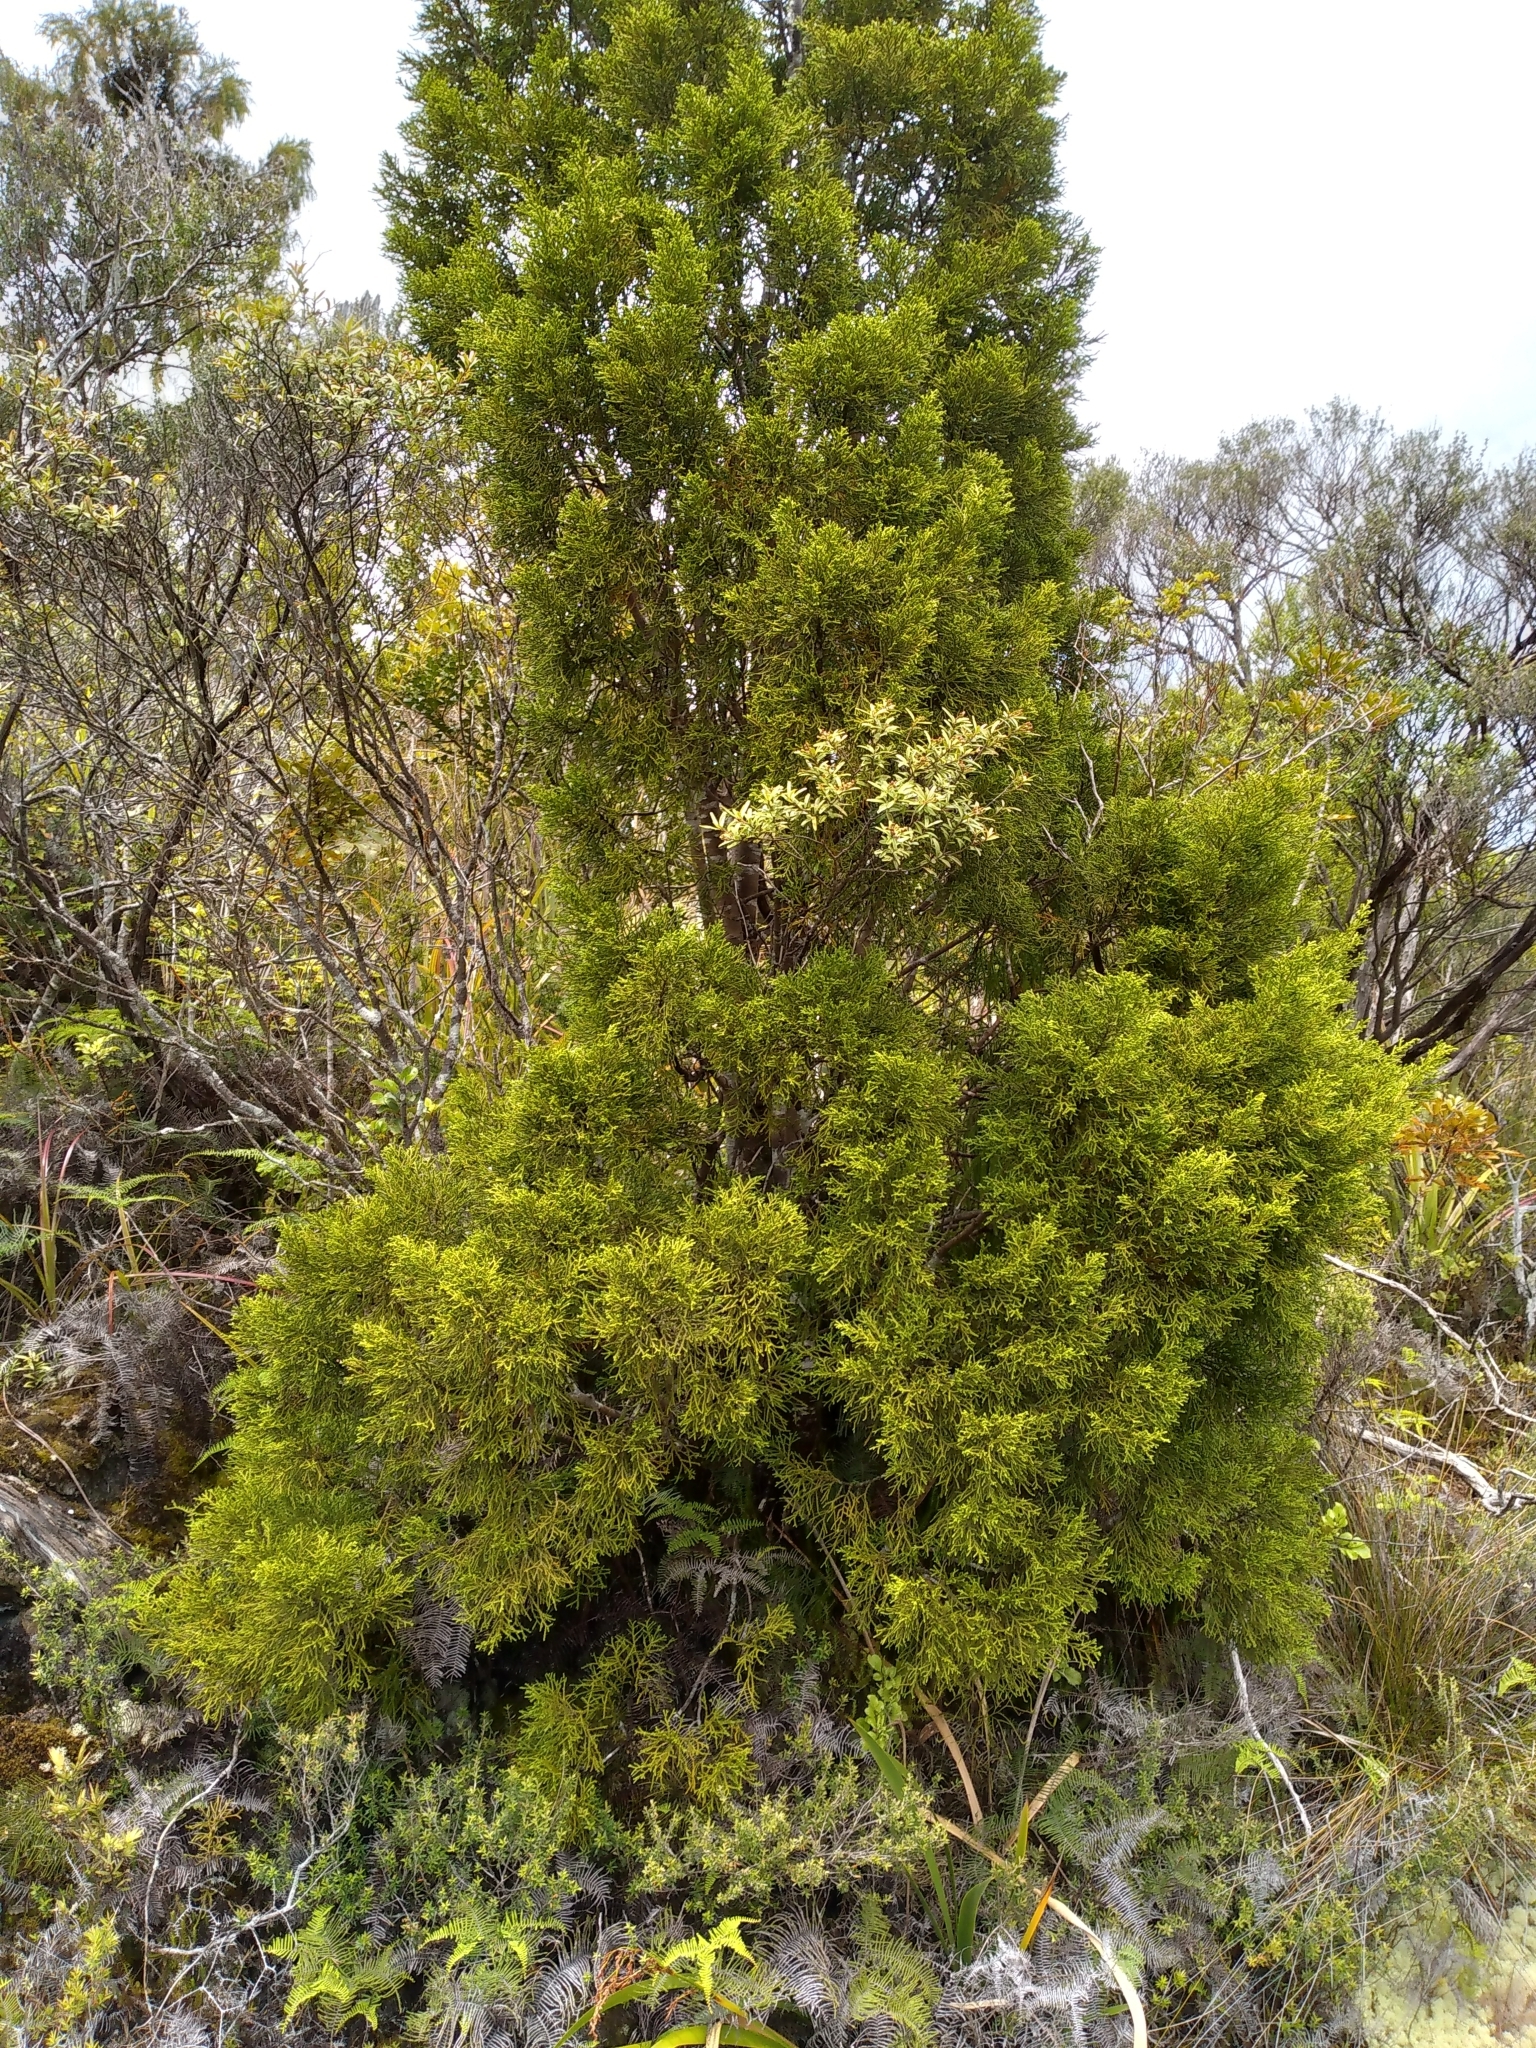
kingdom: Plantae
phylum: Tracheophyta
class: Pinopsida
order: Pinales
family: Podocarpaceae
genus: Lepidothamnus
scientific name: Lepidothamnus intermedius
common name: Yellow silver pine
